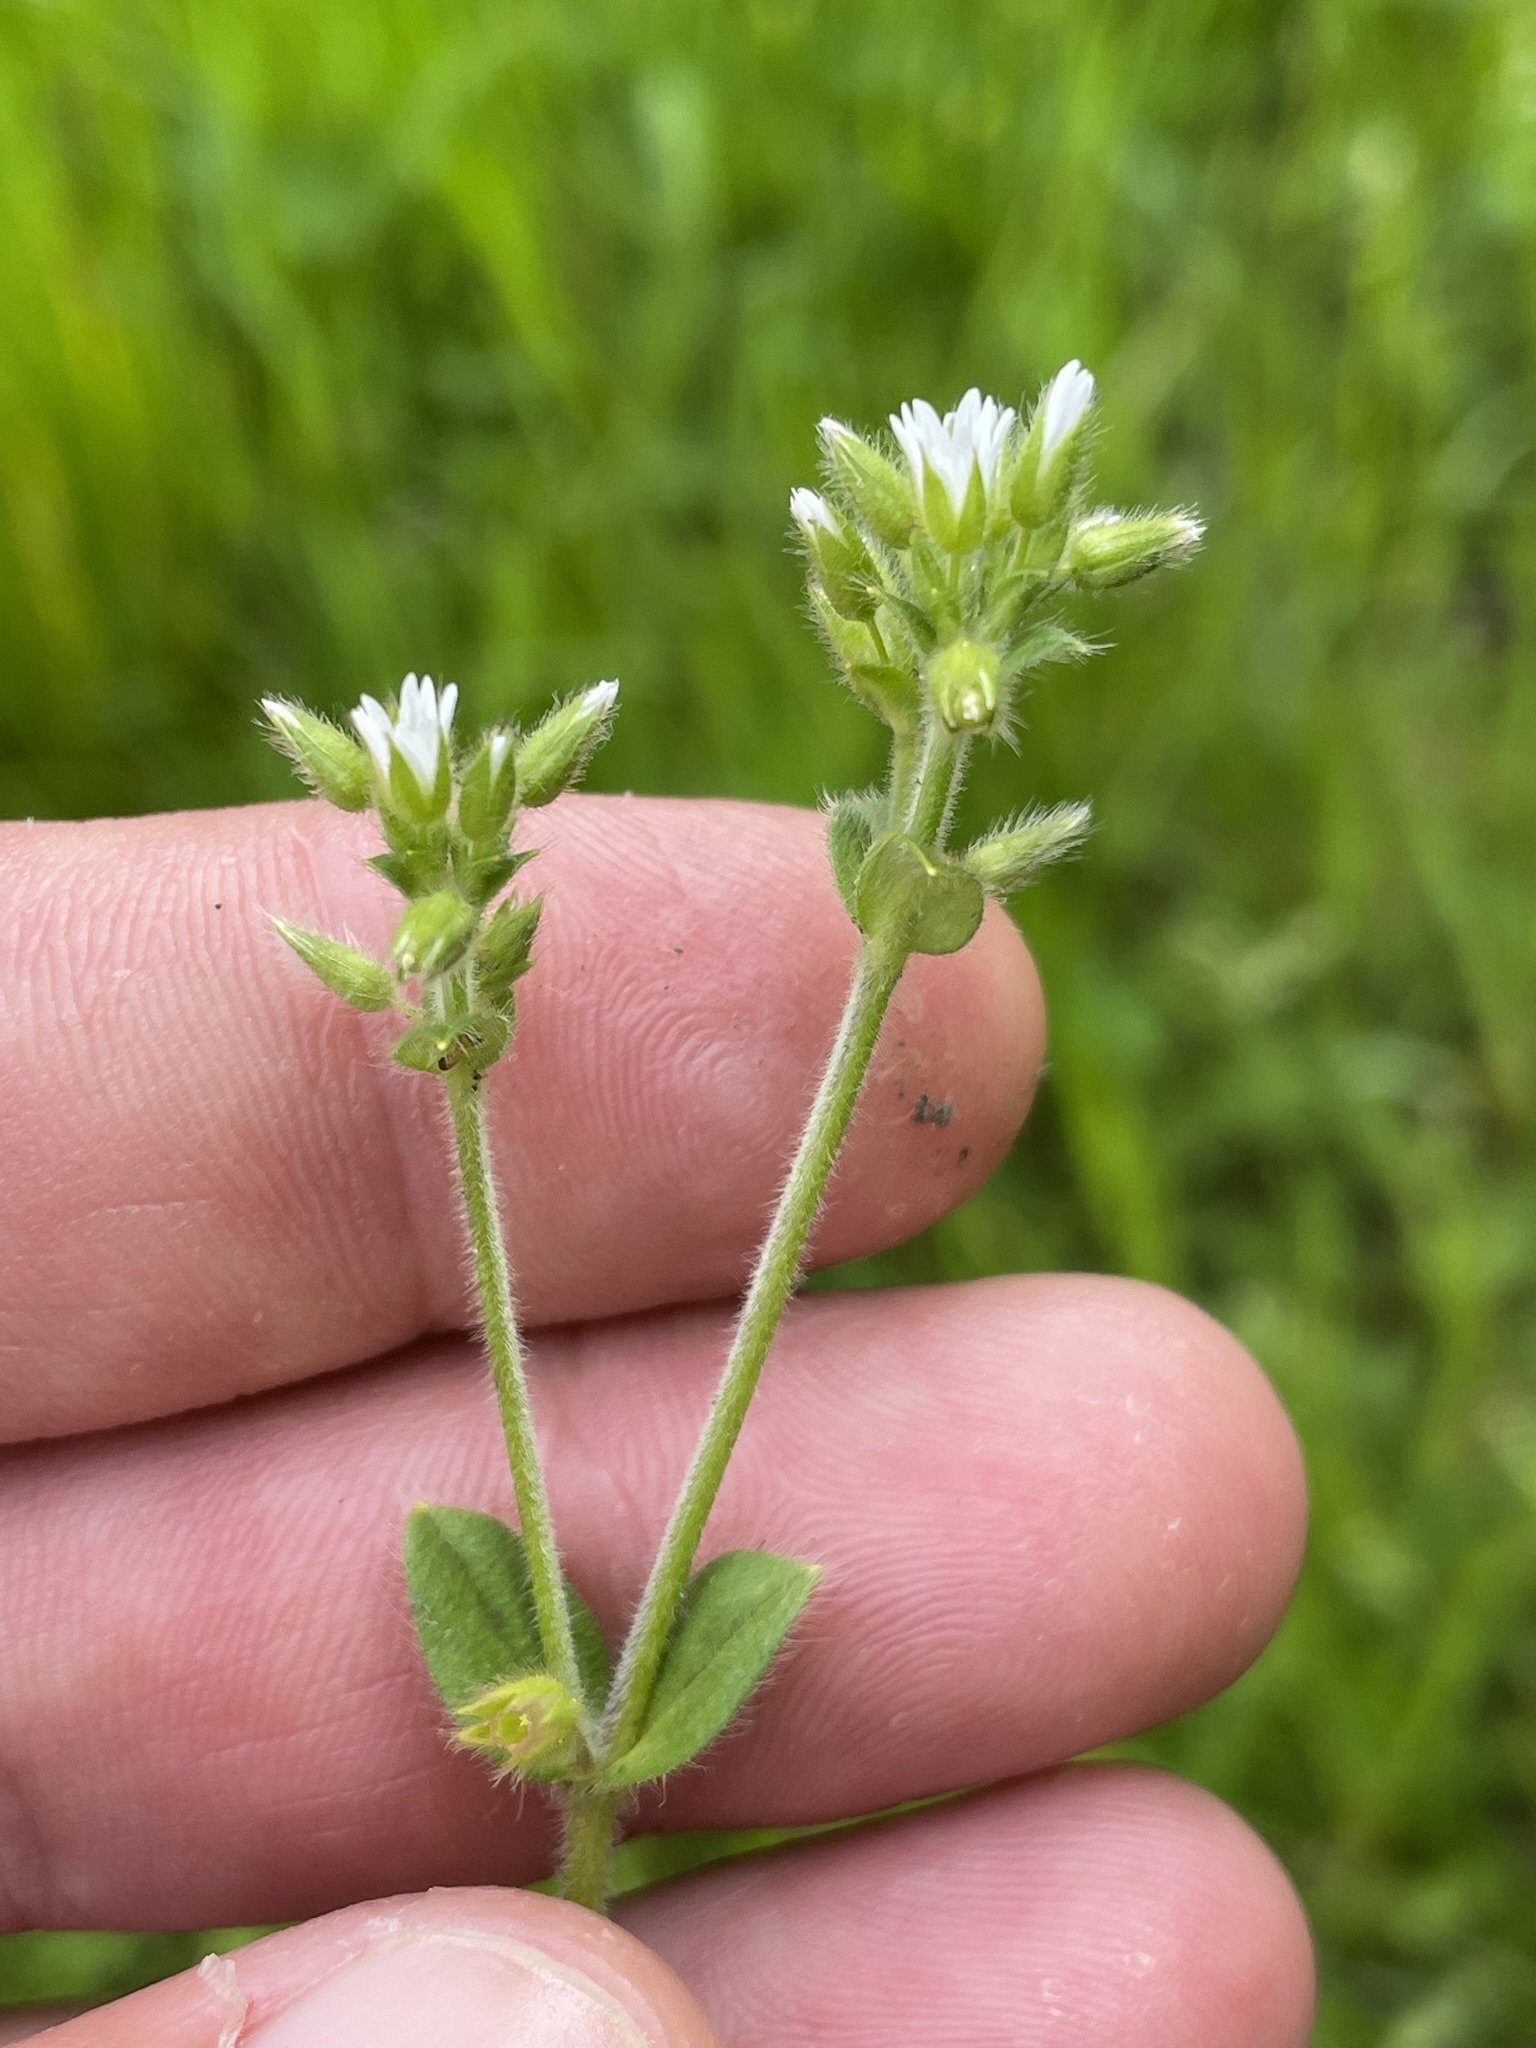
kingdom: Plantae
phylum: Tracheophyta
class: Magnoliopsida
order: Caryophyllales
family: Caryophyllaceae
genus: Cerastium
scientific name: Cerastium glomeratum
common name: Sticky chickweed
